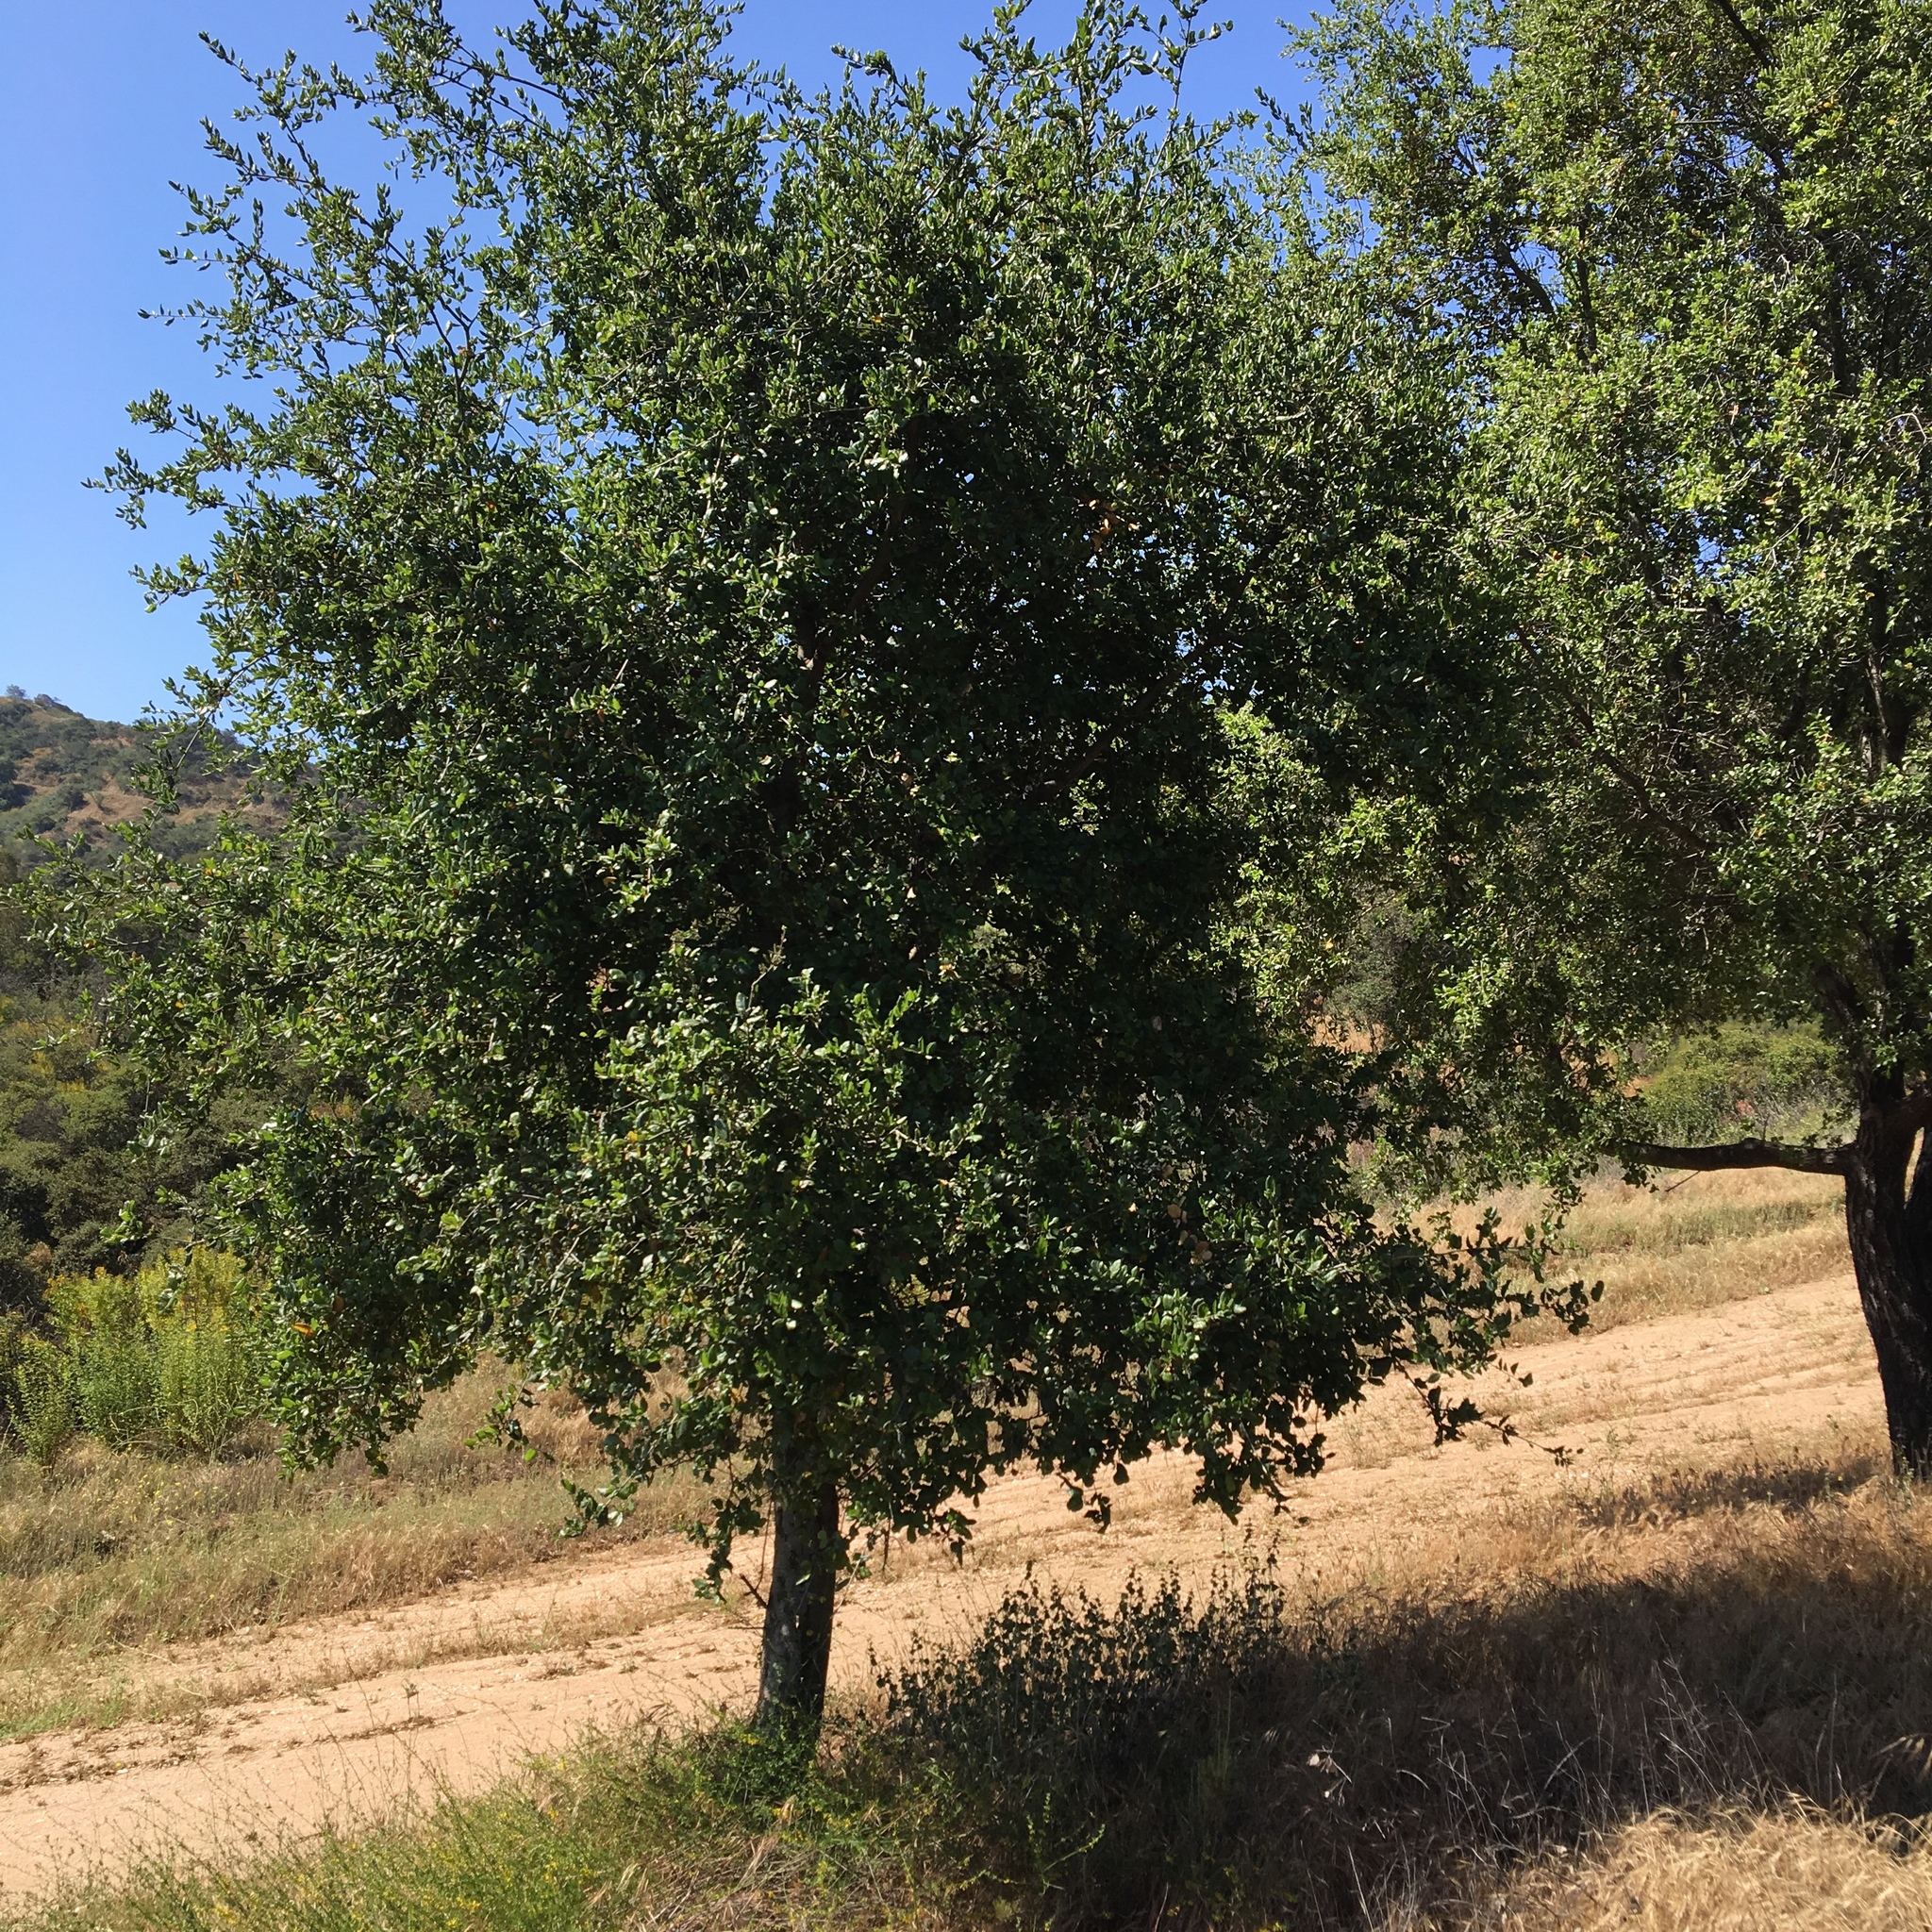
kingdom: Plantae
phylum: Tracheophyta
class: Magnoliopsida
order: Fagales
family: Fagaceae
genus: Quercus
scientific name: Quercus agrifolia
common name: California live oak
